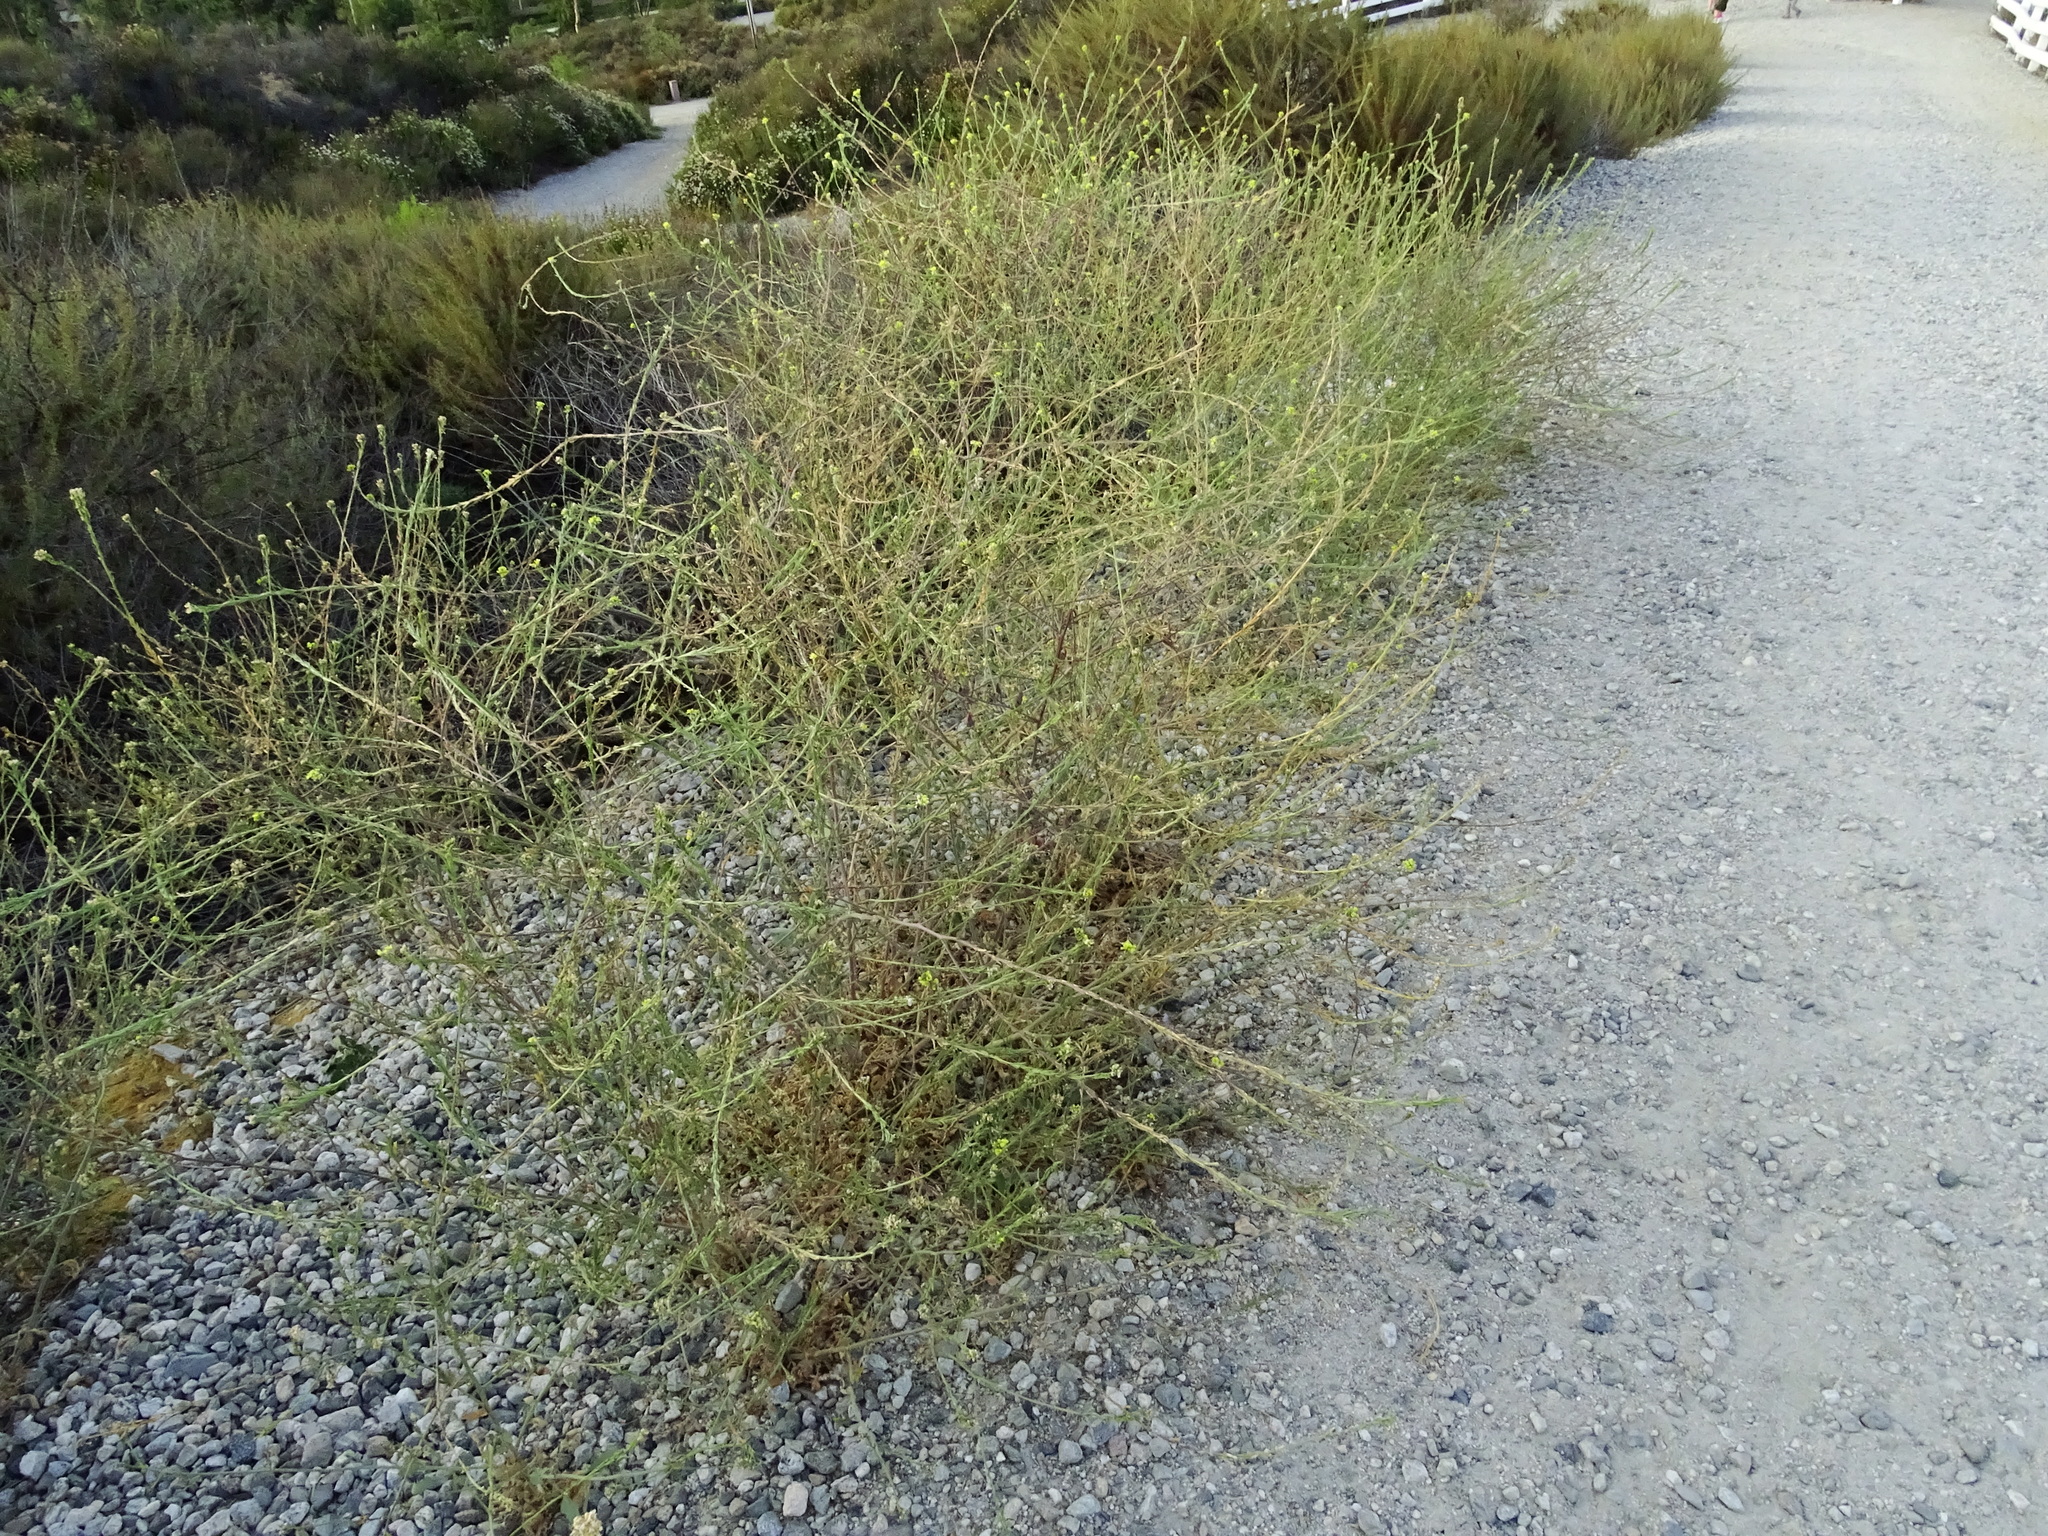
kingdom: Plantae
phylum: Tracheophyta
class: Magnoliopsida
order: Brassicales
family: Brassicaceae
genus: Hirschfeldia
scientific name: Hirschfeldia incana
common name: Hoary mustard
